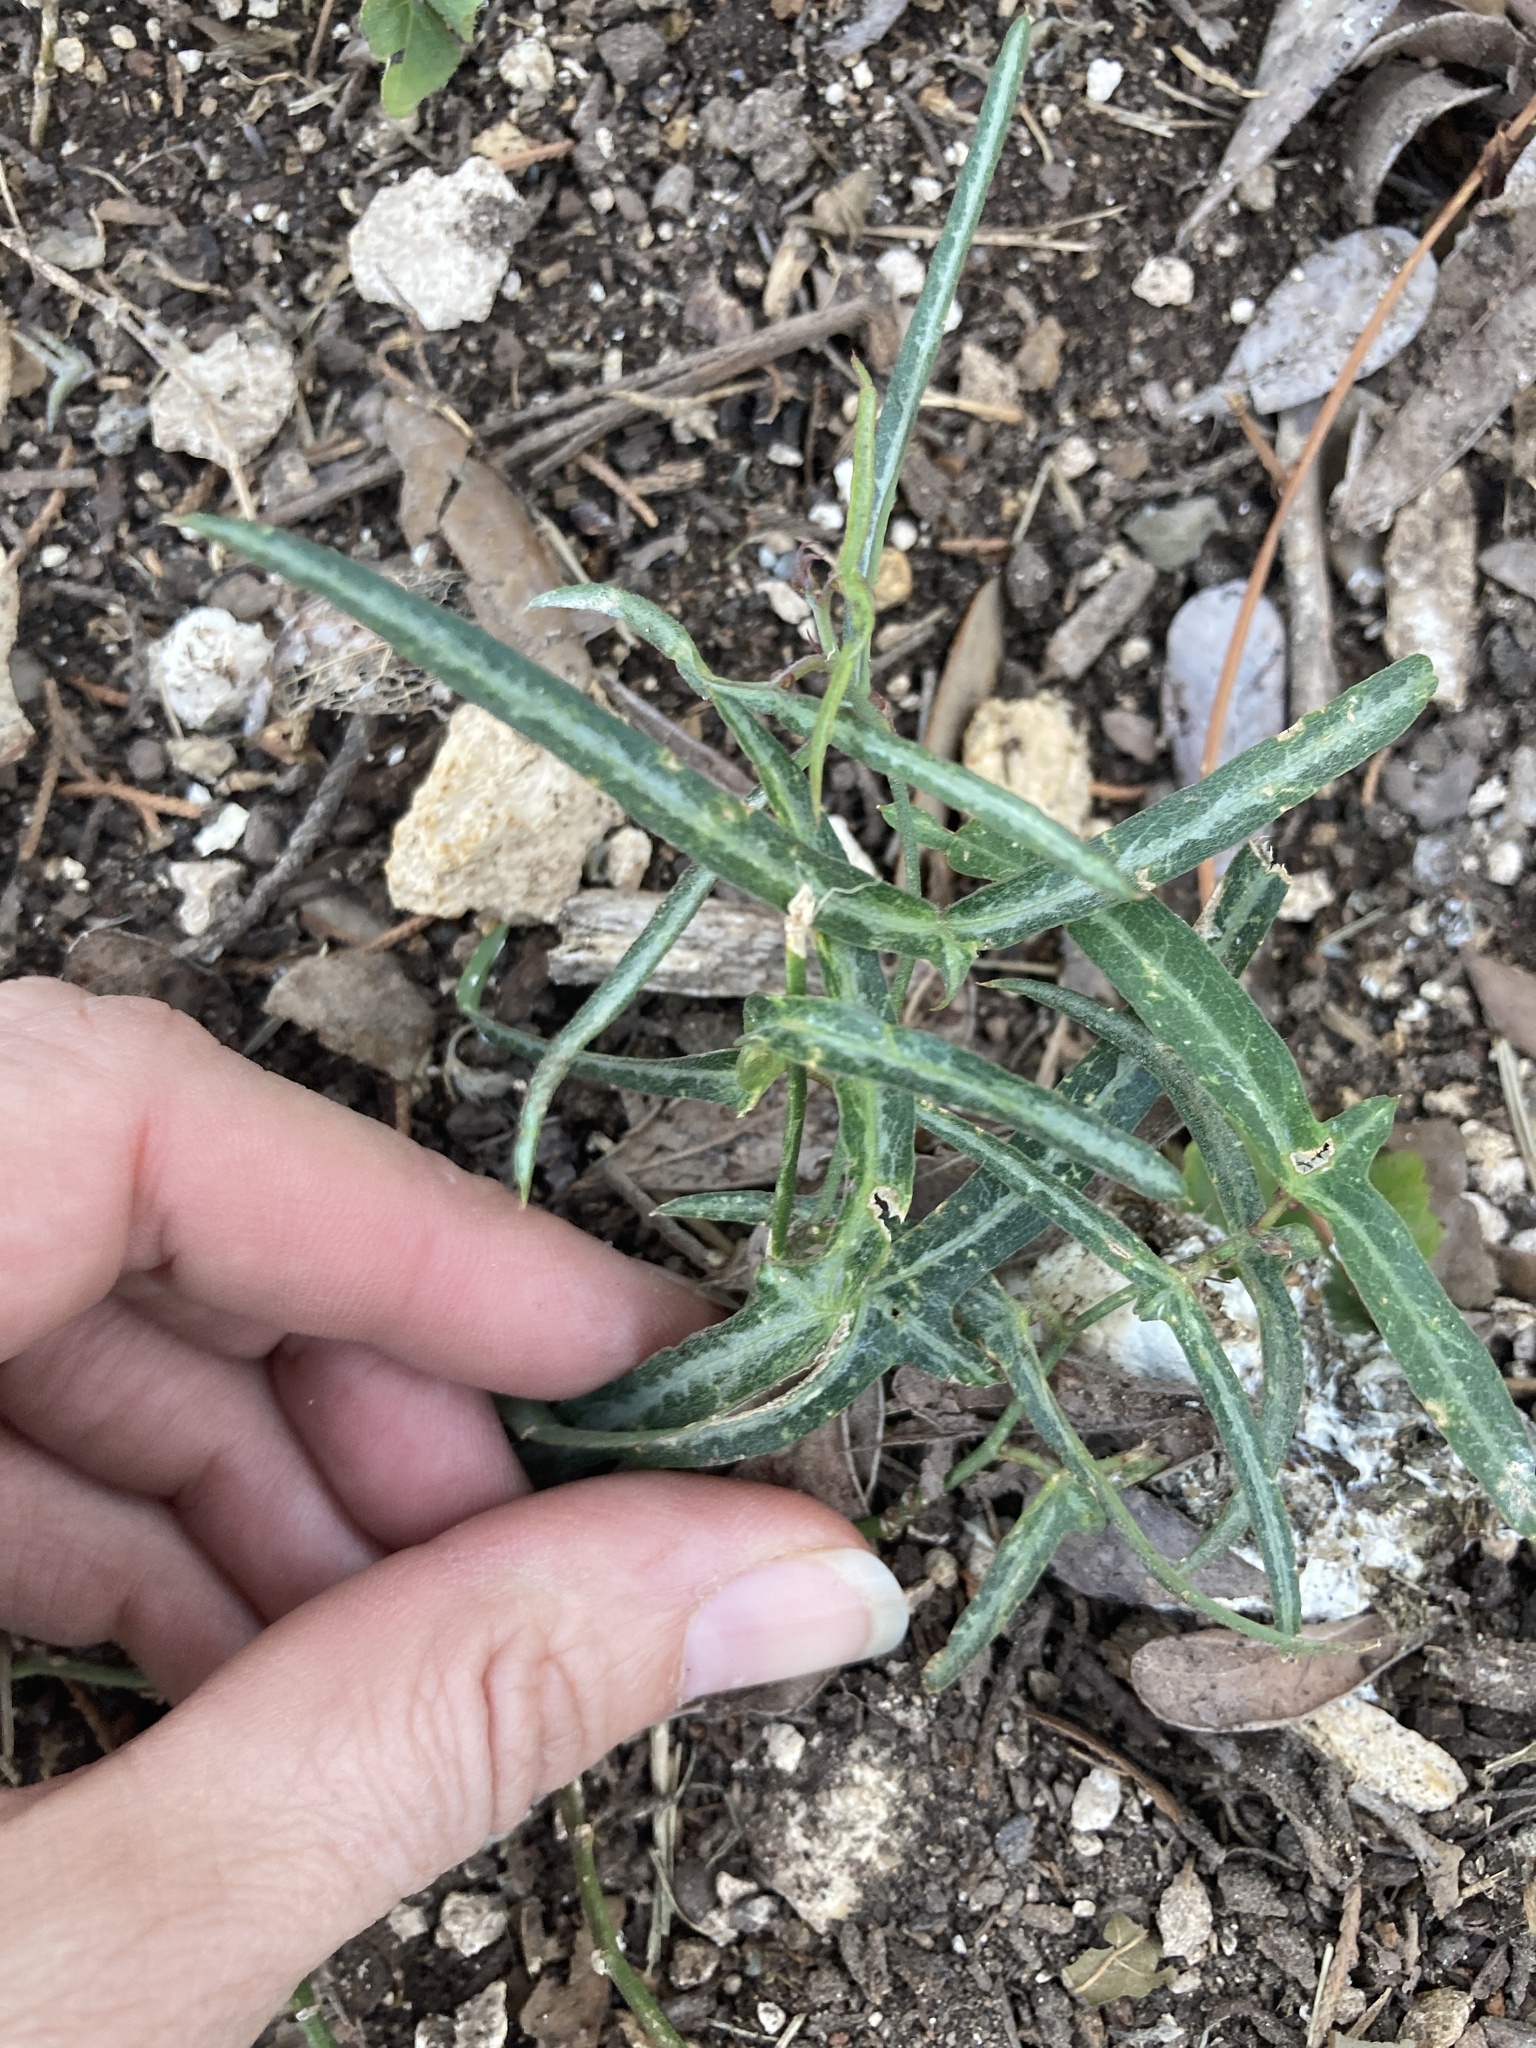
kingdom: Plantae
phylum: Tracheophyta
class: Magnoliopsida
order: Malpighiales
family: Passifloraceae
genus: Passiflora
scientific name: Passiflora tenuiloba
